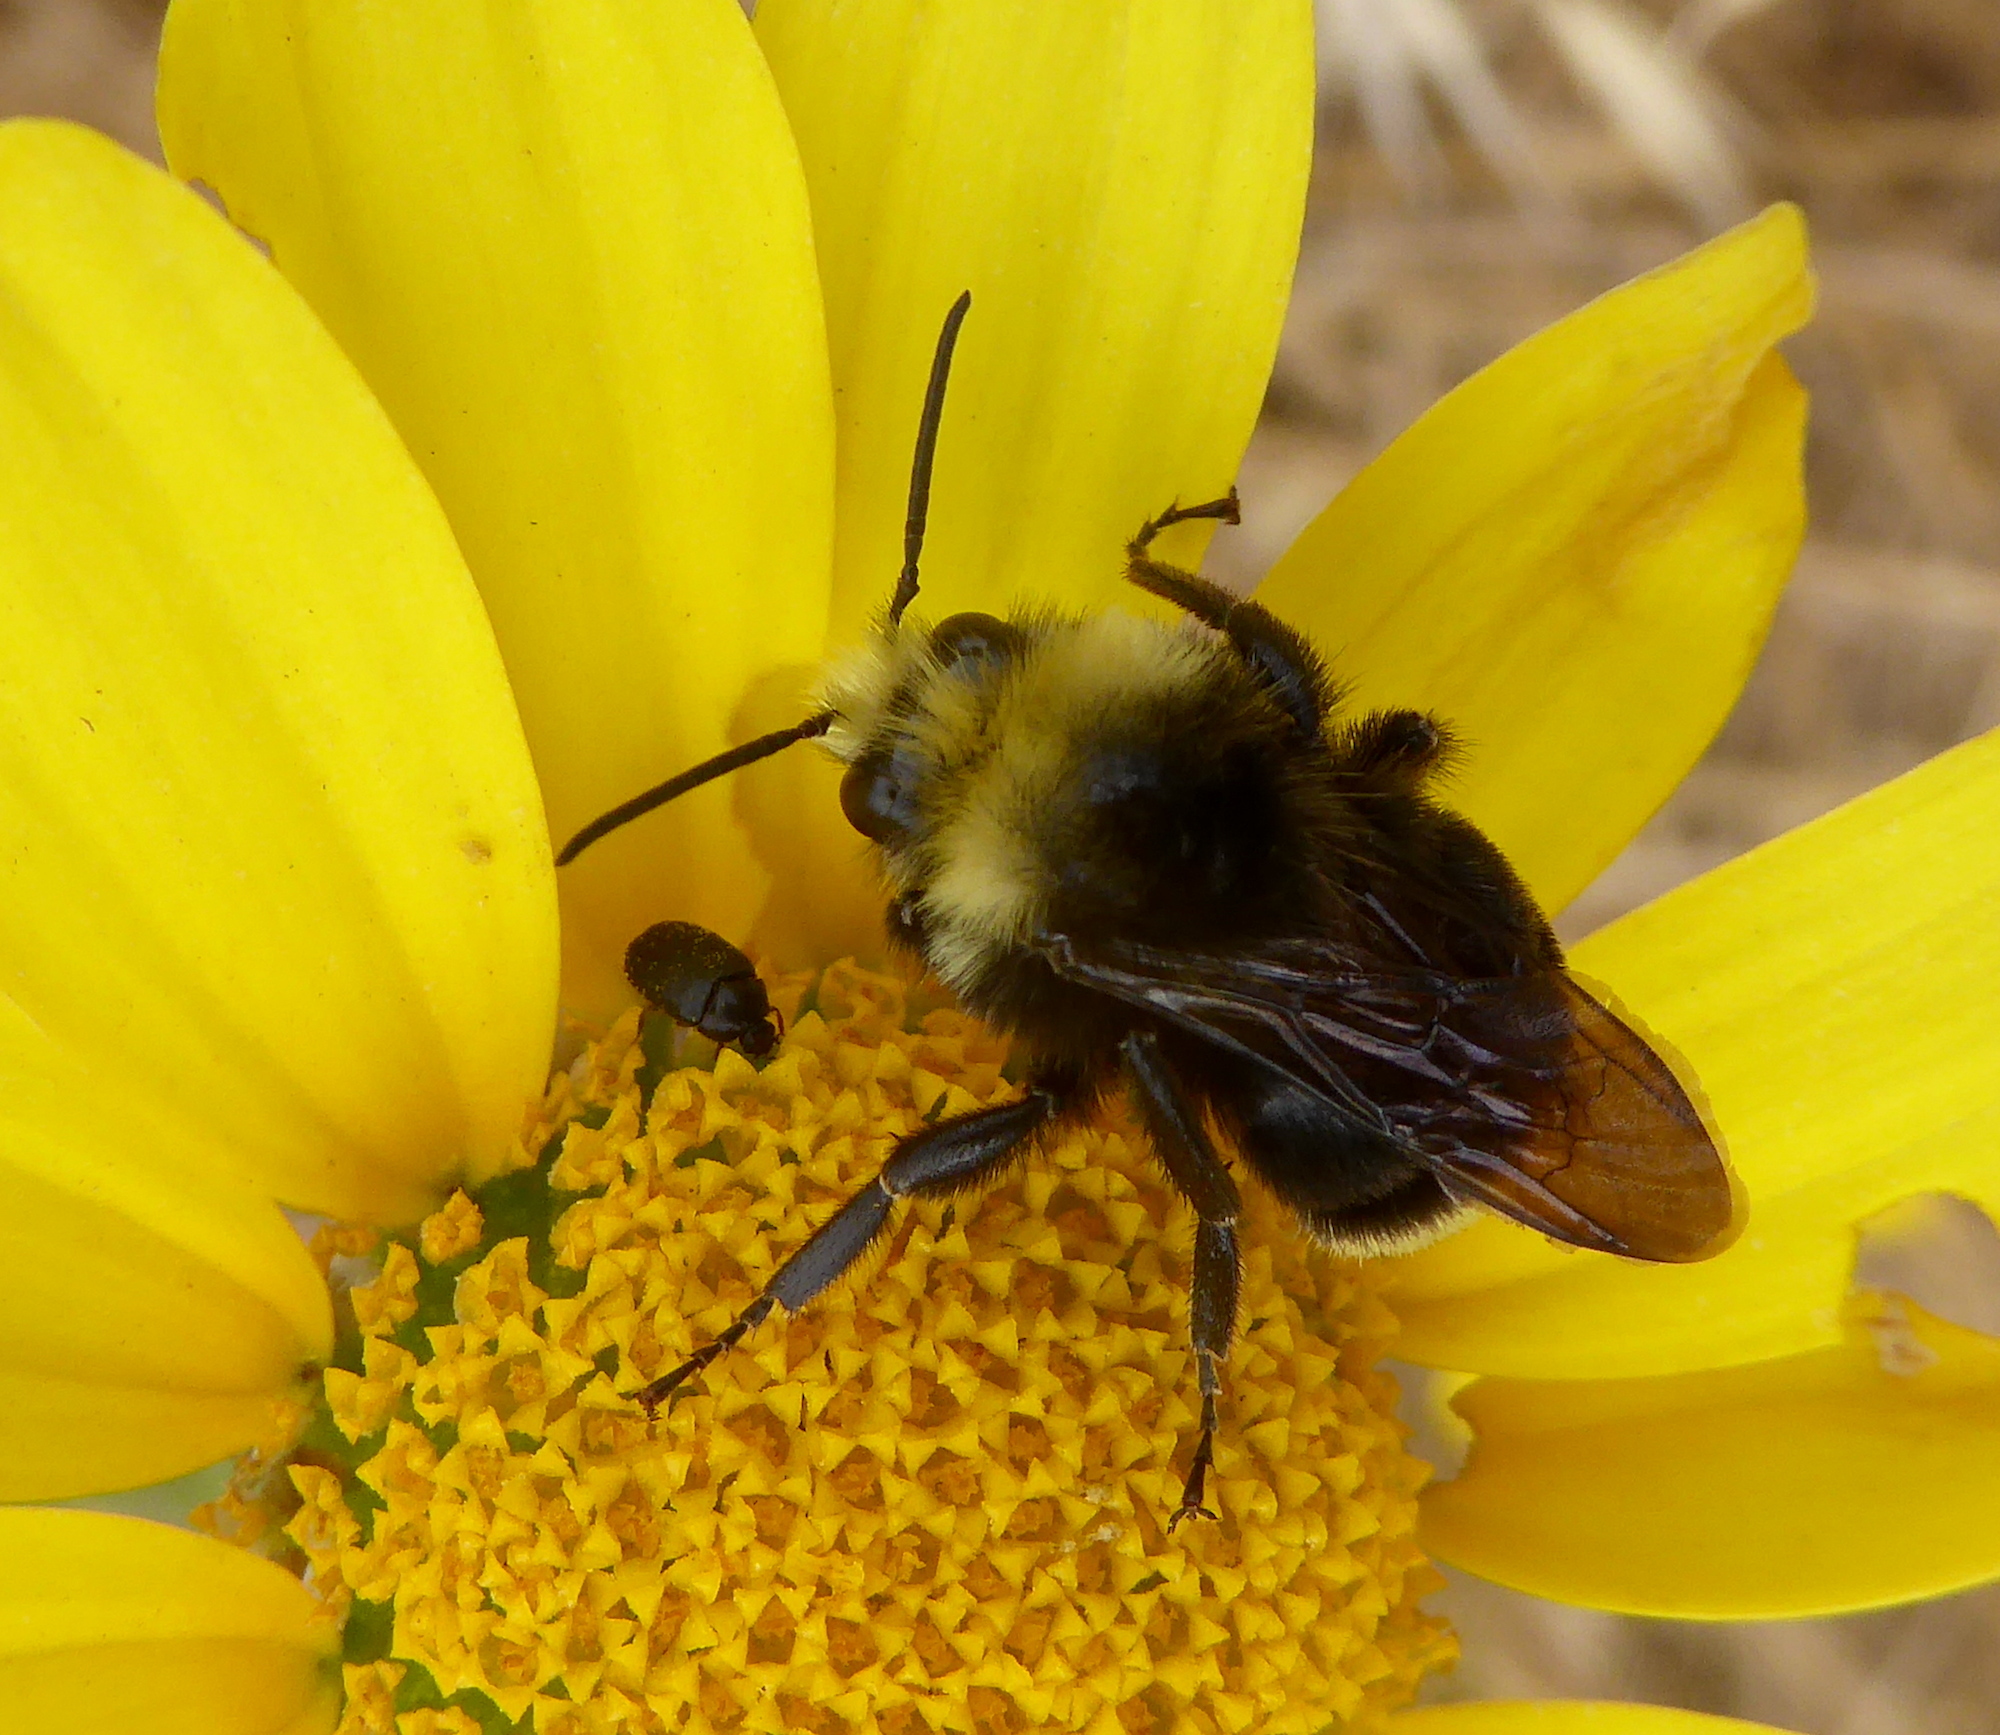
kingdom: Animalia
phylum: Arthropoda
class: Insecta
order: Hymenoptera
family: Apidae
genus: Pyrobombus
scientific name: Pyrobombus
